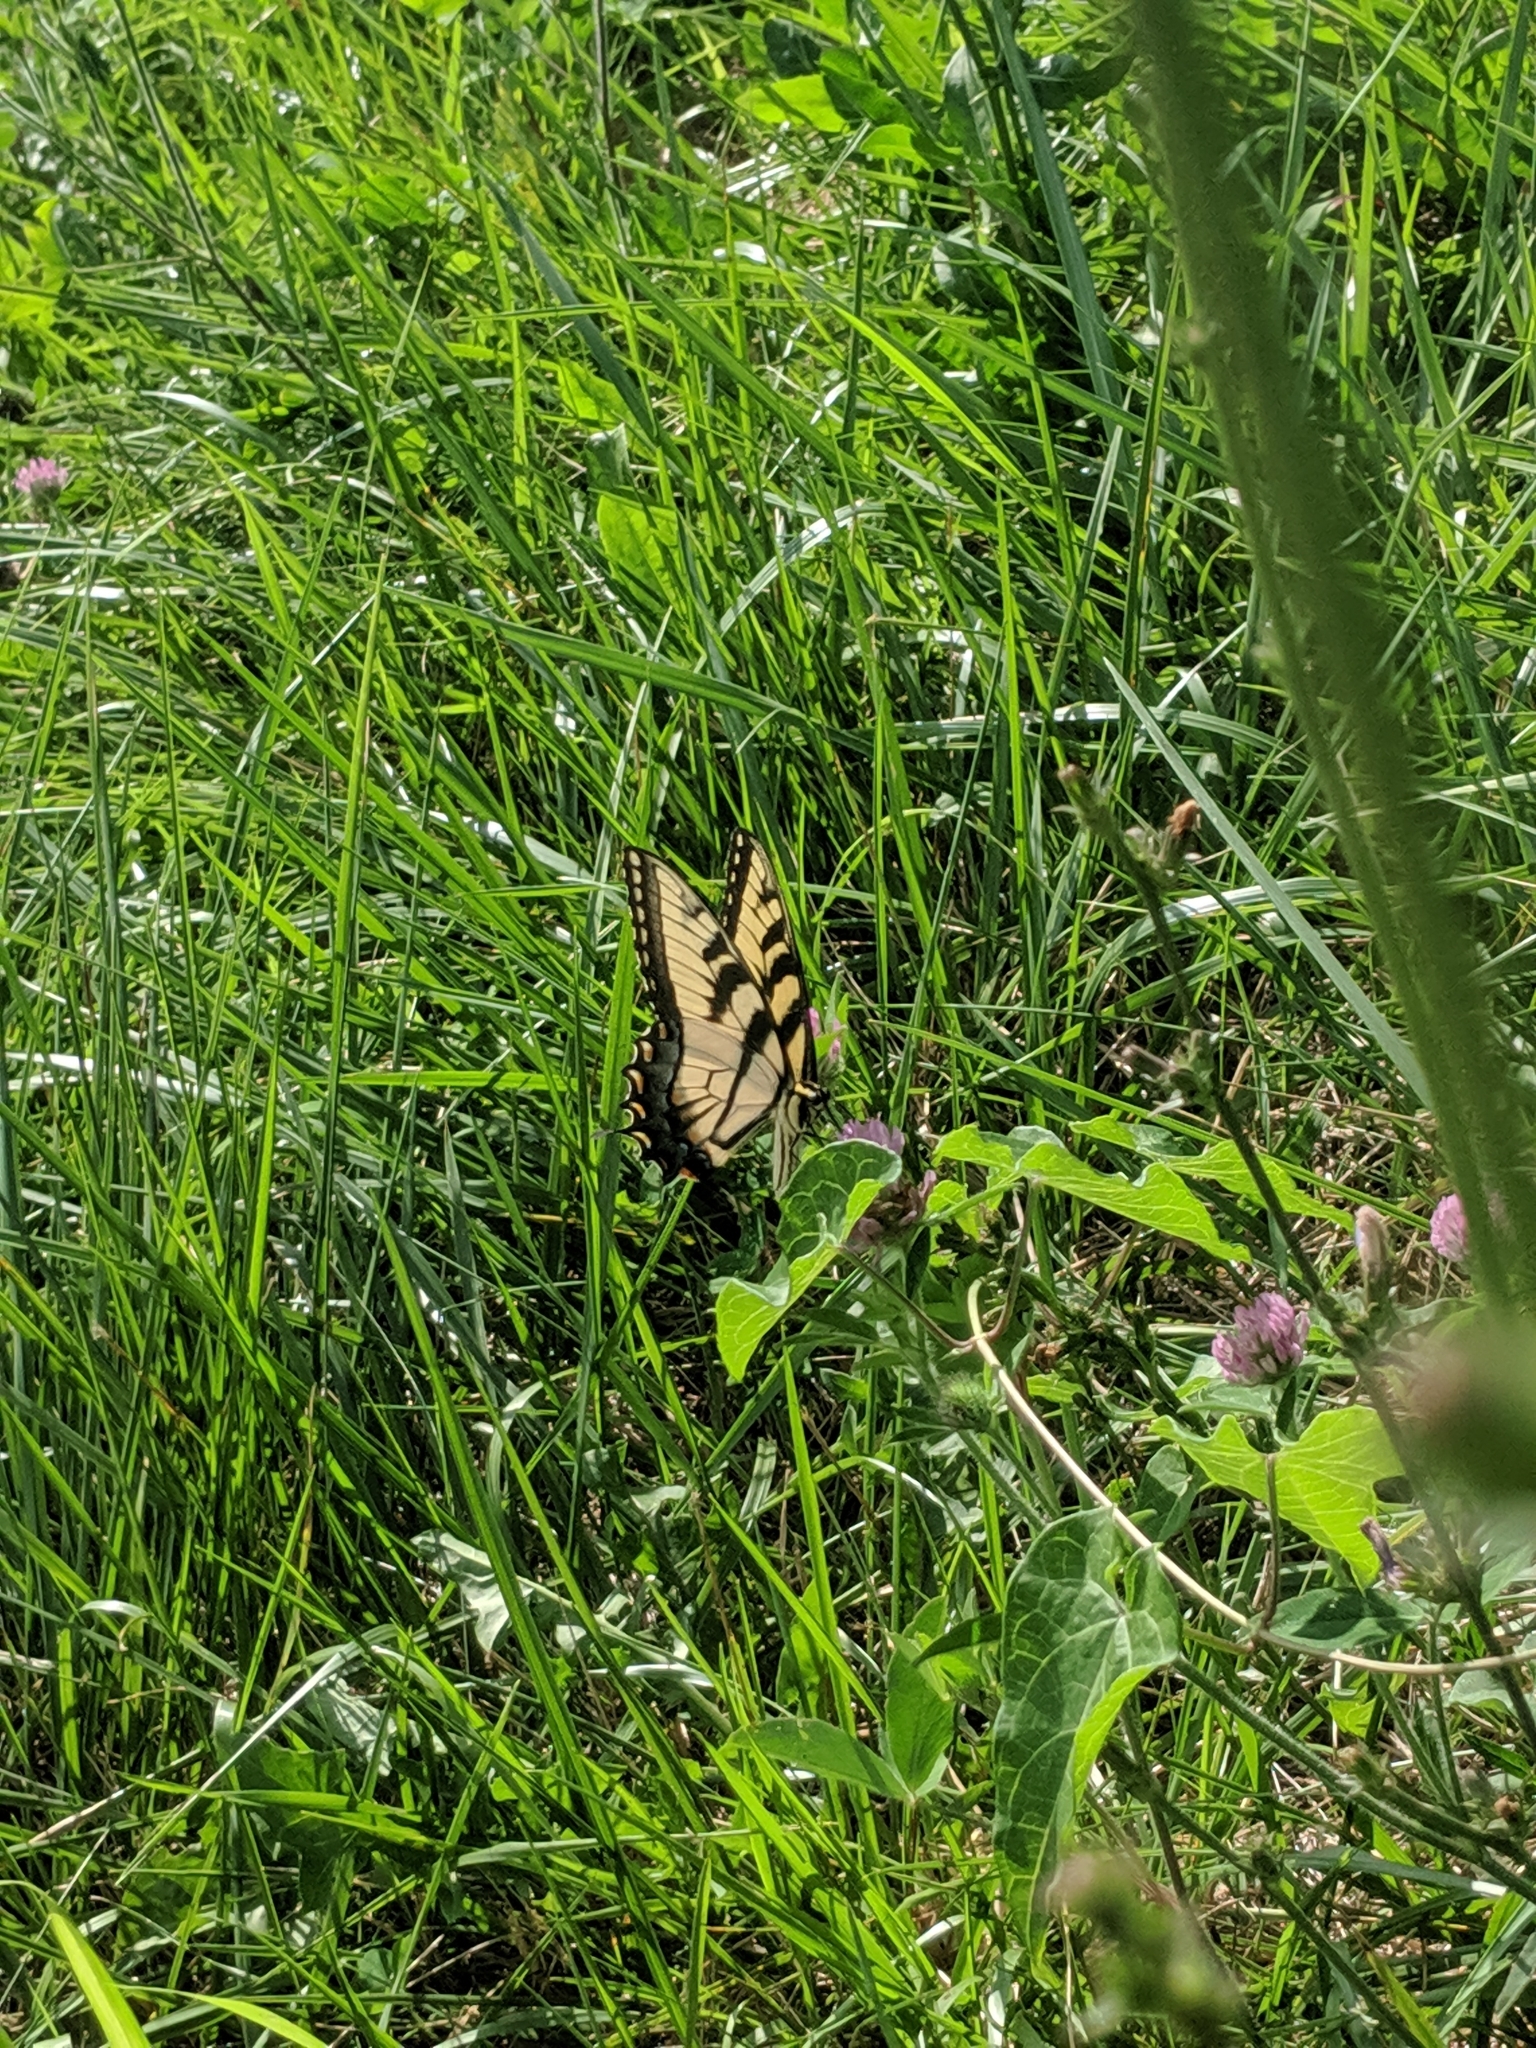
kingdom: Animalia
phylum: Arthropoda
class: Insecta
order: Lepidoptera
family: Papilionidae
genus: Papilio
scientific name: Papilio glaucus
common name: Tiger swallowtail
